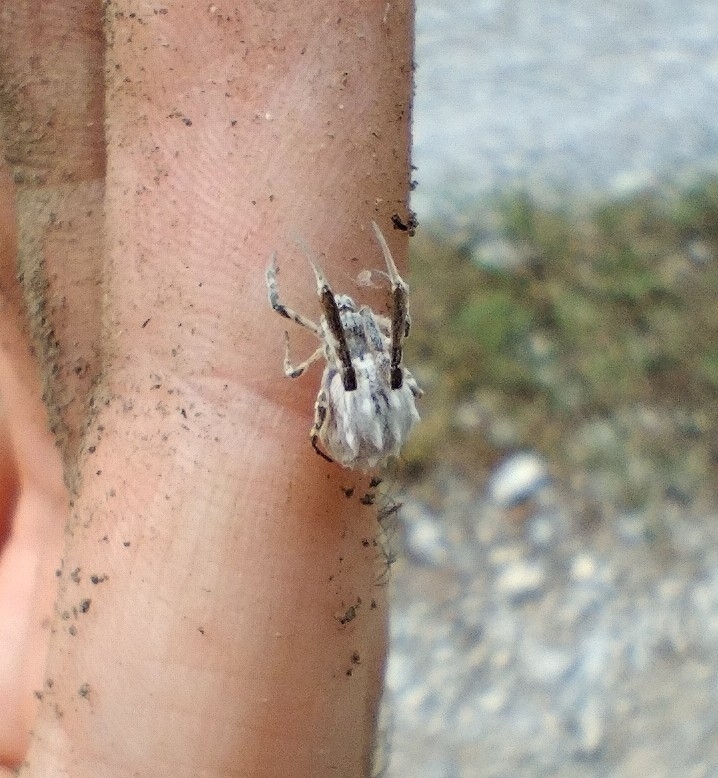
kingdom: Animalia
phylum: Arthropoda
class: Arachnida
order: Araneae
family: Uloboridae
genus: Uloborus
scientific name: Uloborus walckenaerius
